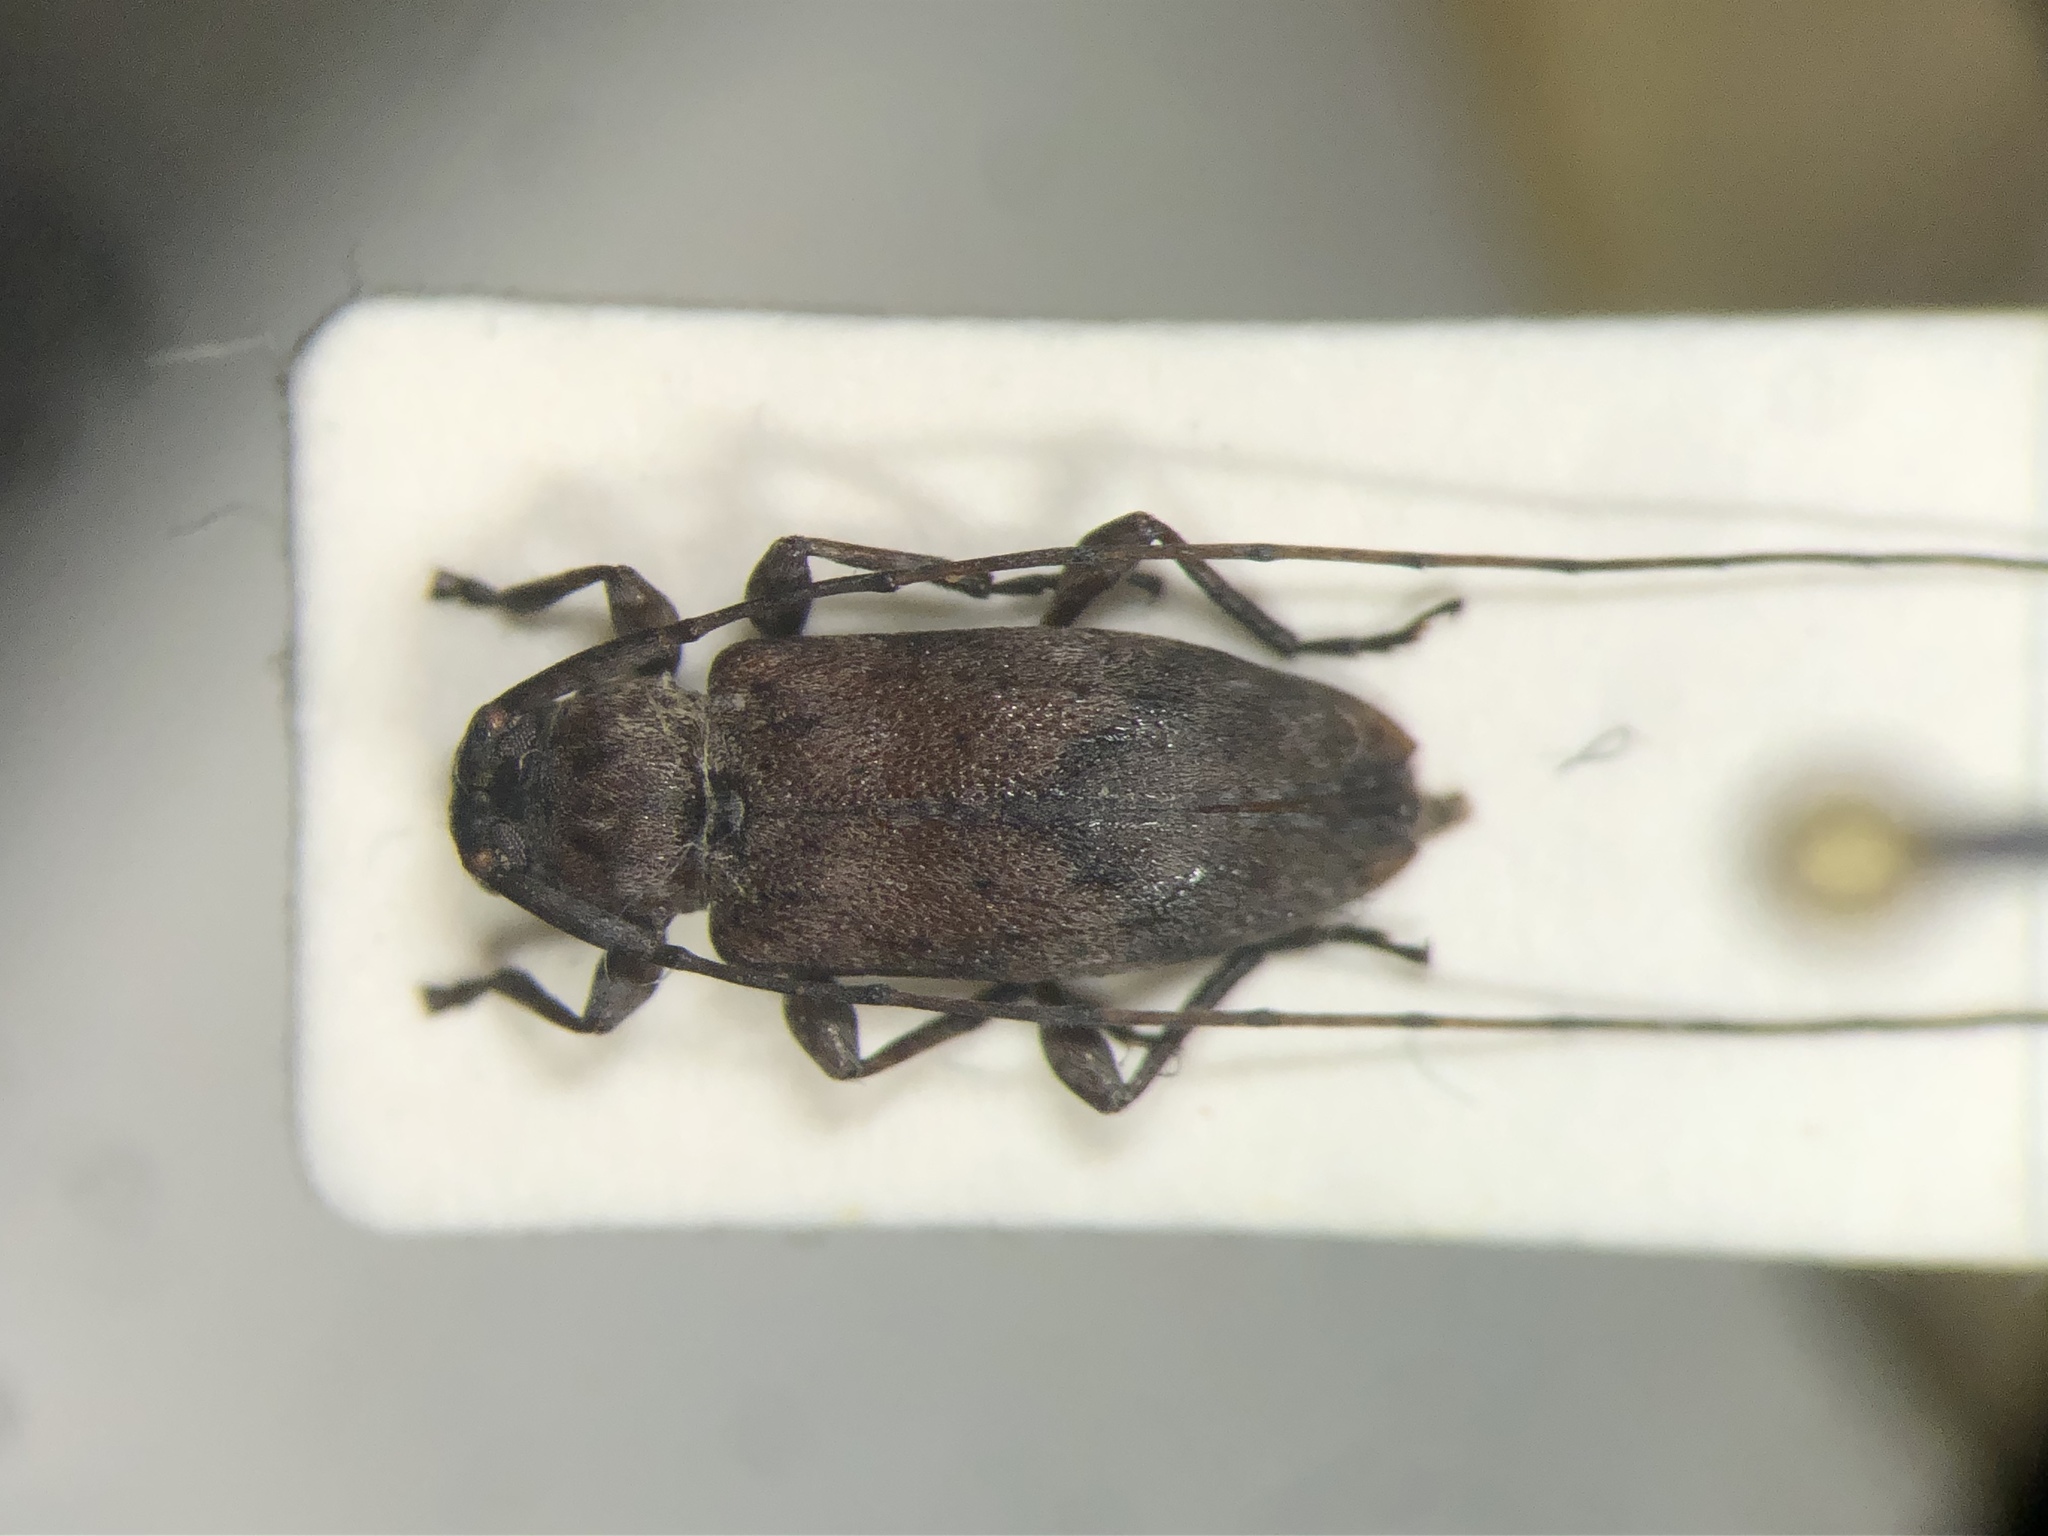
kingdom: Animalia
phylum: Arthropoda
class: Insecta
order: Coleoptera
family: Cerambycidae
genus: Sternidius
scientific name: Sternidius alpha
